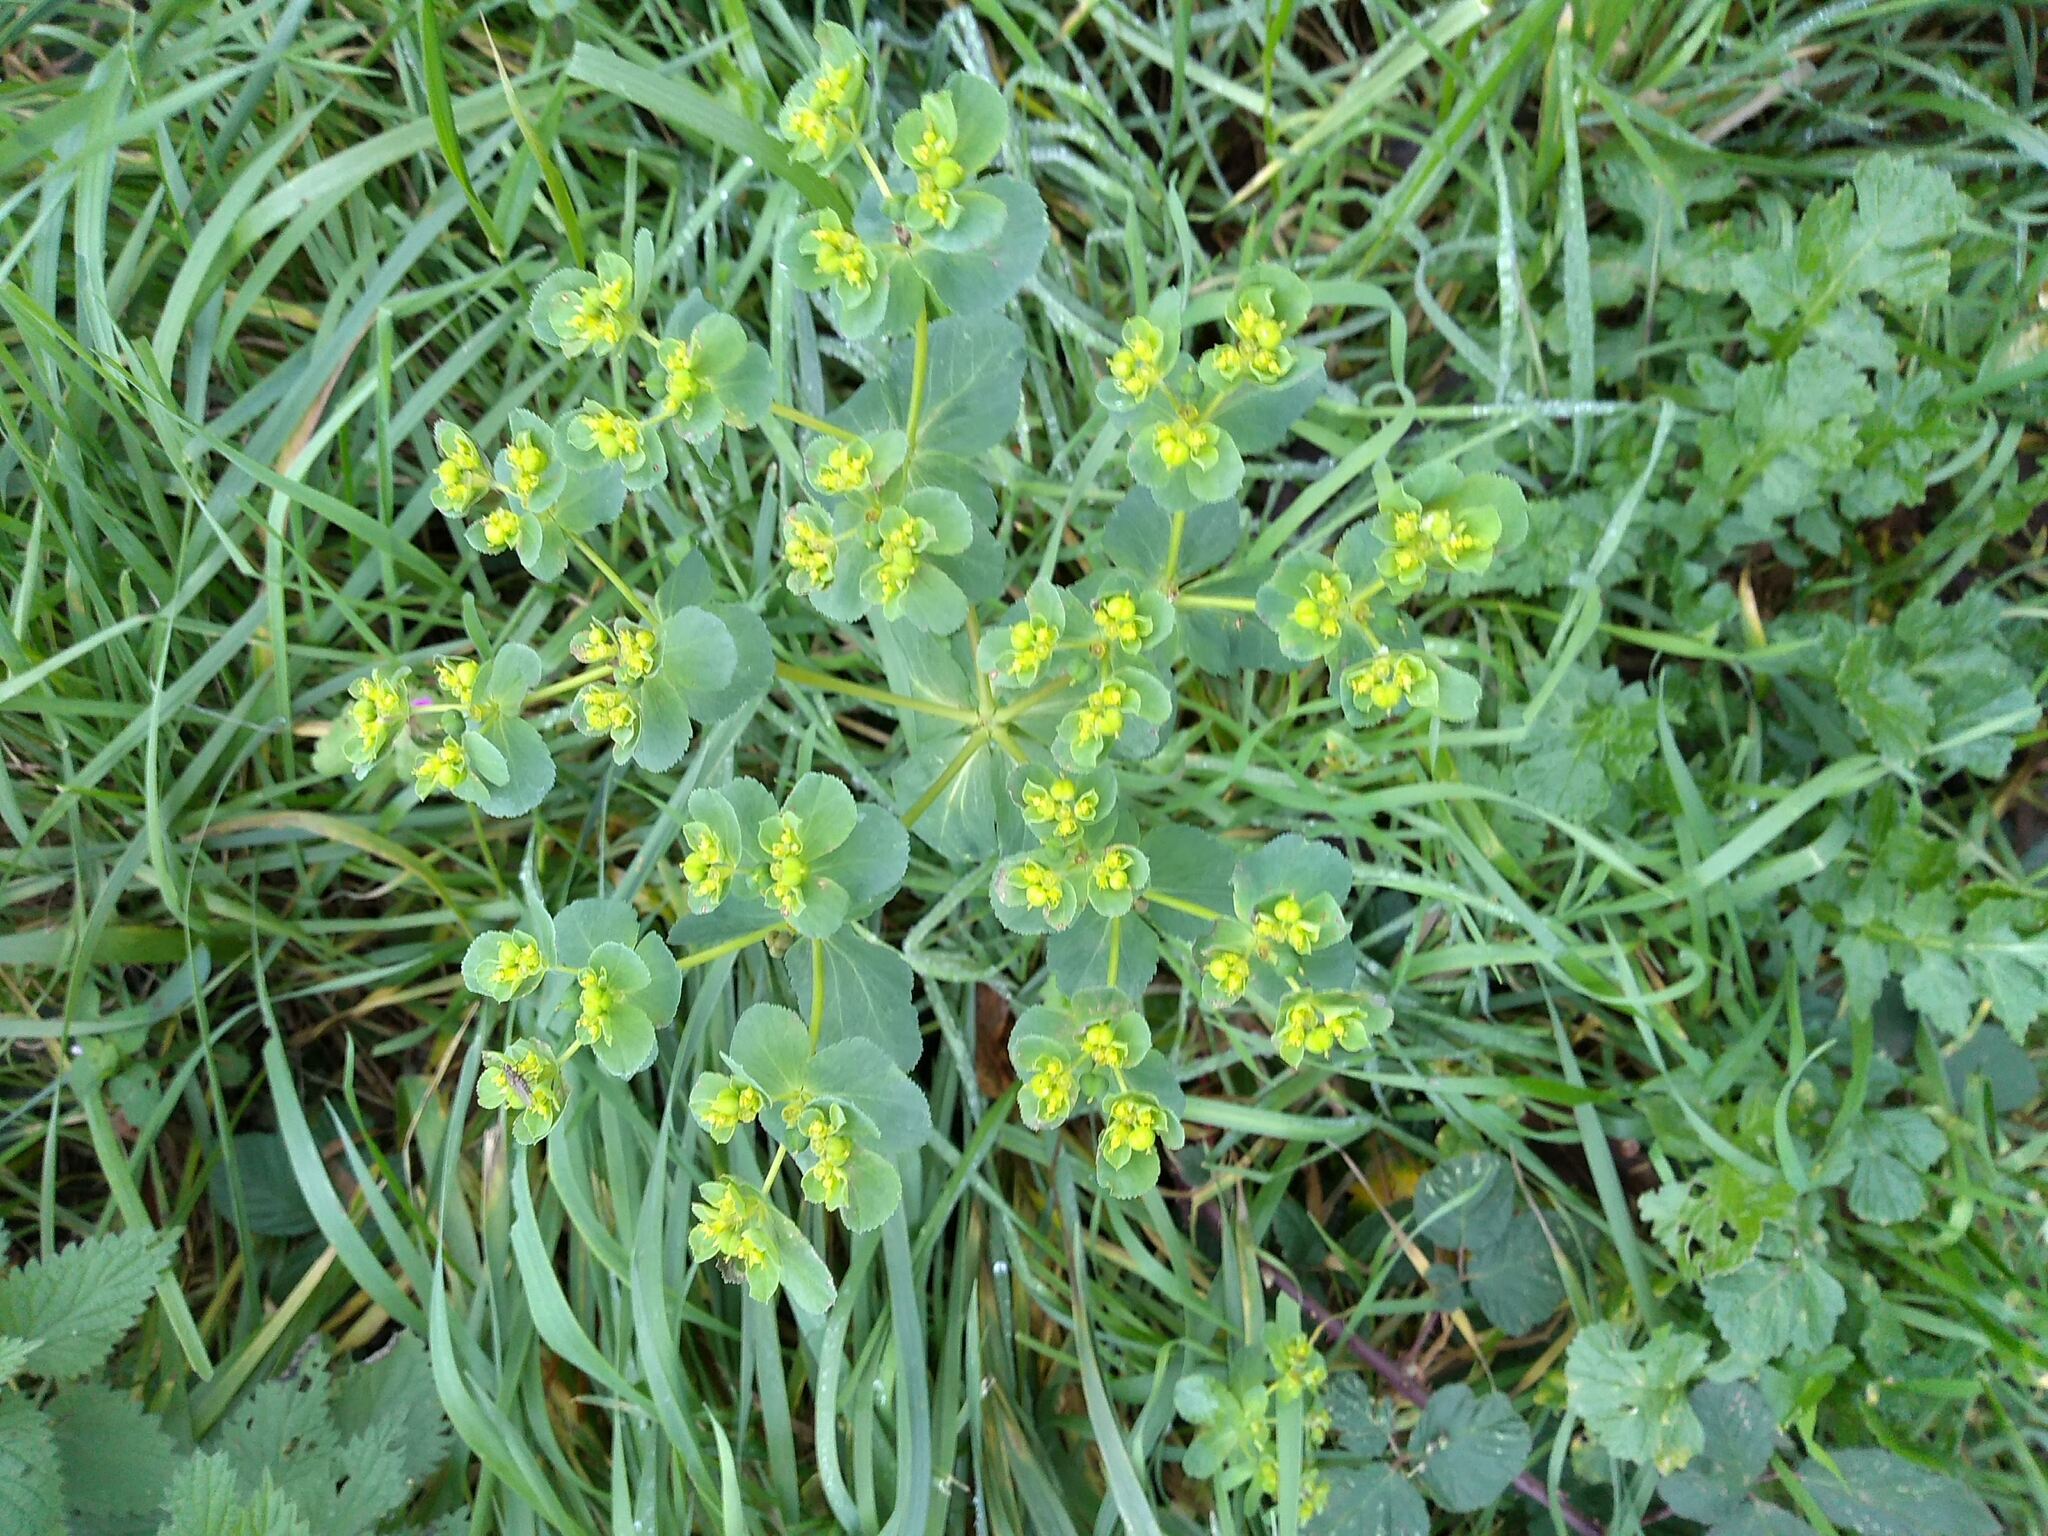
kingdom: Plantae
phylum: Tracheophyta
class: Magnoliopsida
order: Malpighiales
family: Euphorbiaceae
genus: Euphorbia
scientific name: Euphorbia helioscopia
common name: Sun spurge
